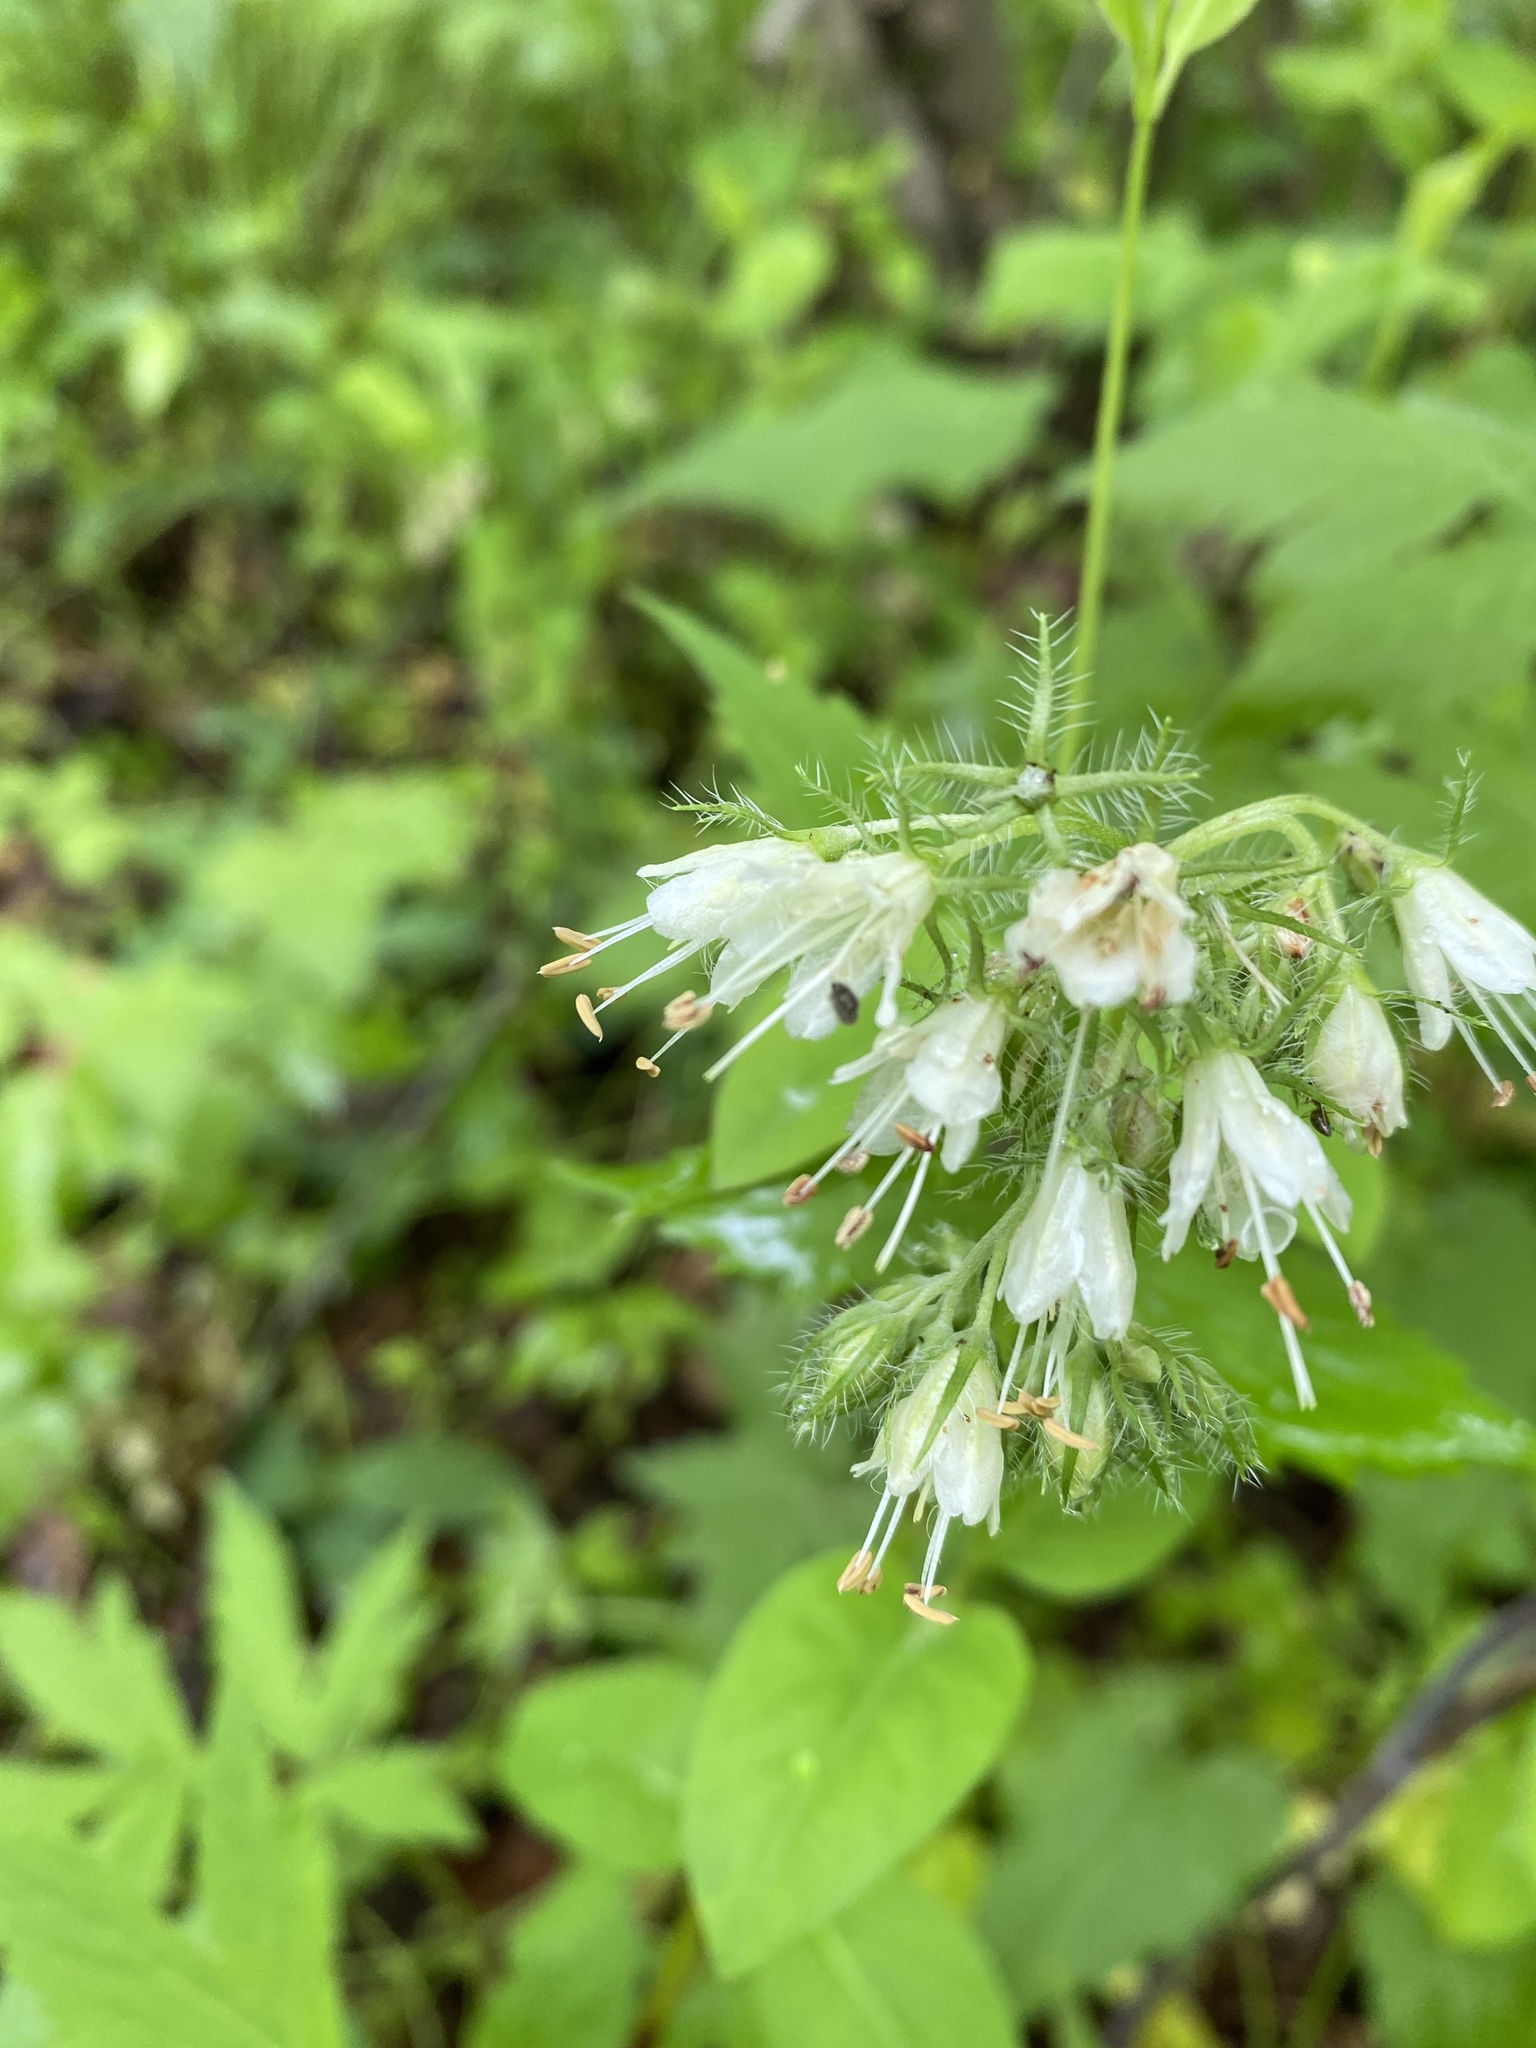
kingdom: Plantae
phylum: Tracheophyta
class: Magnoliopsida
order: Boraginales
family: Hydrophyllaceae
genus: Hydrophyllum
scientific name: Hydrophyllum virginianum
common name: Virginia waterleaf
